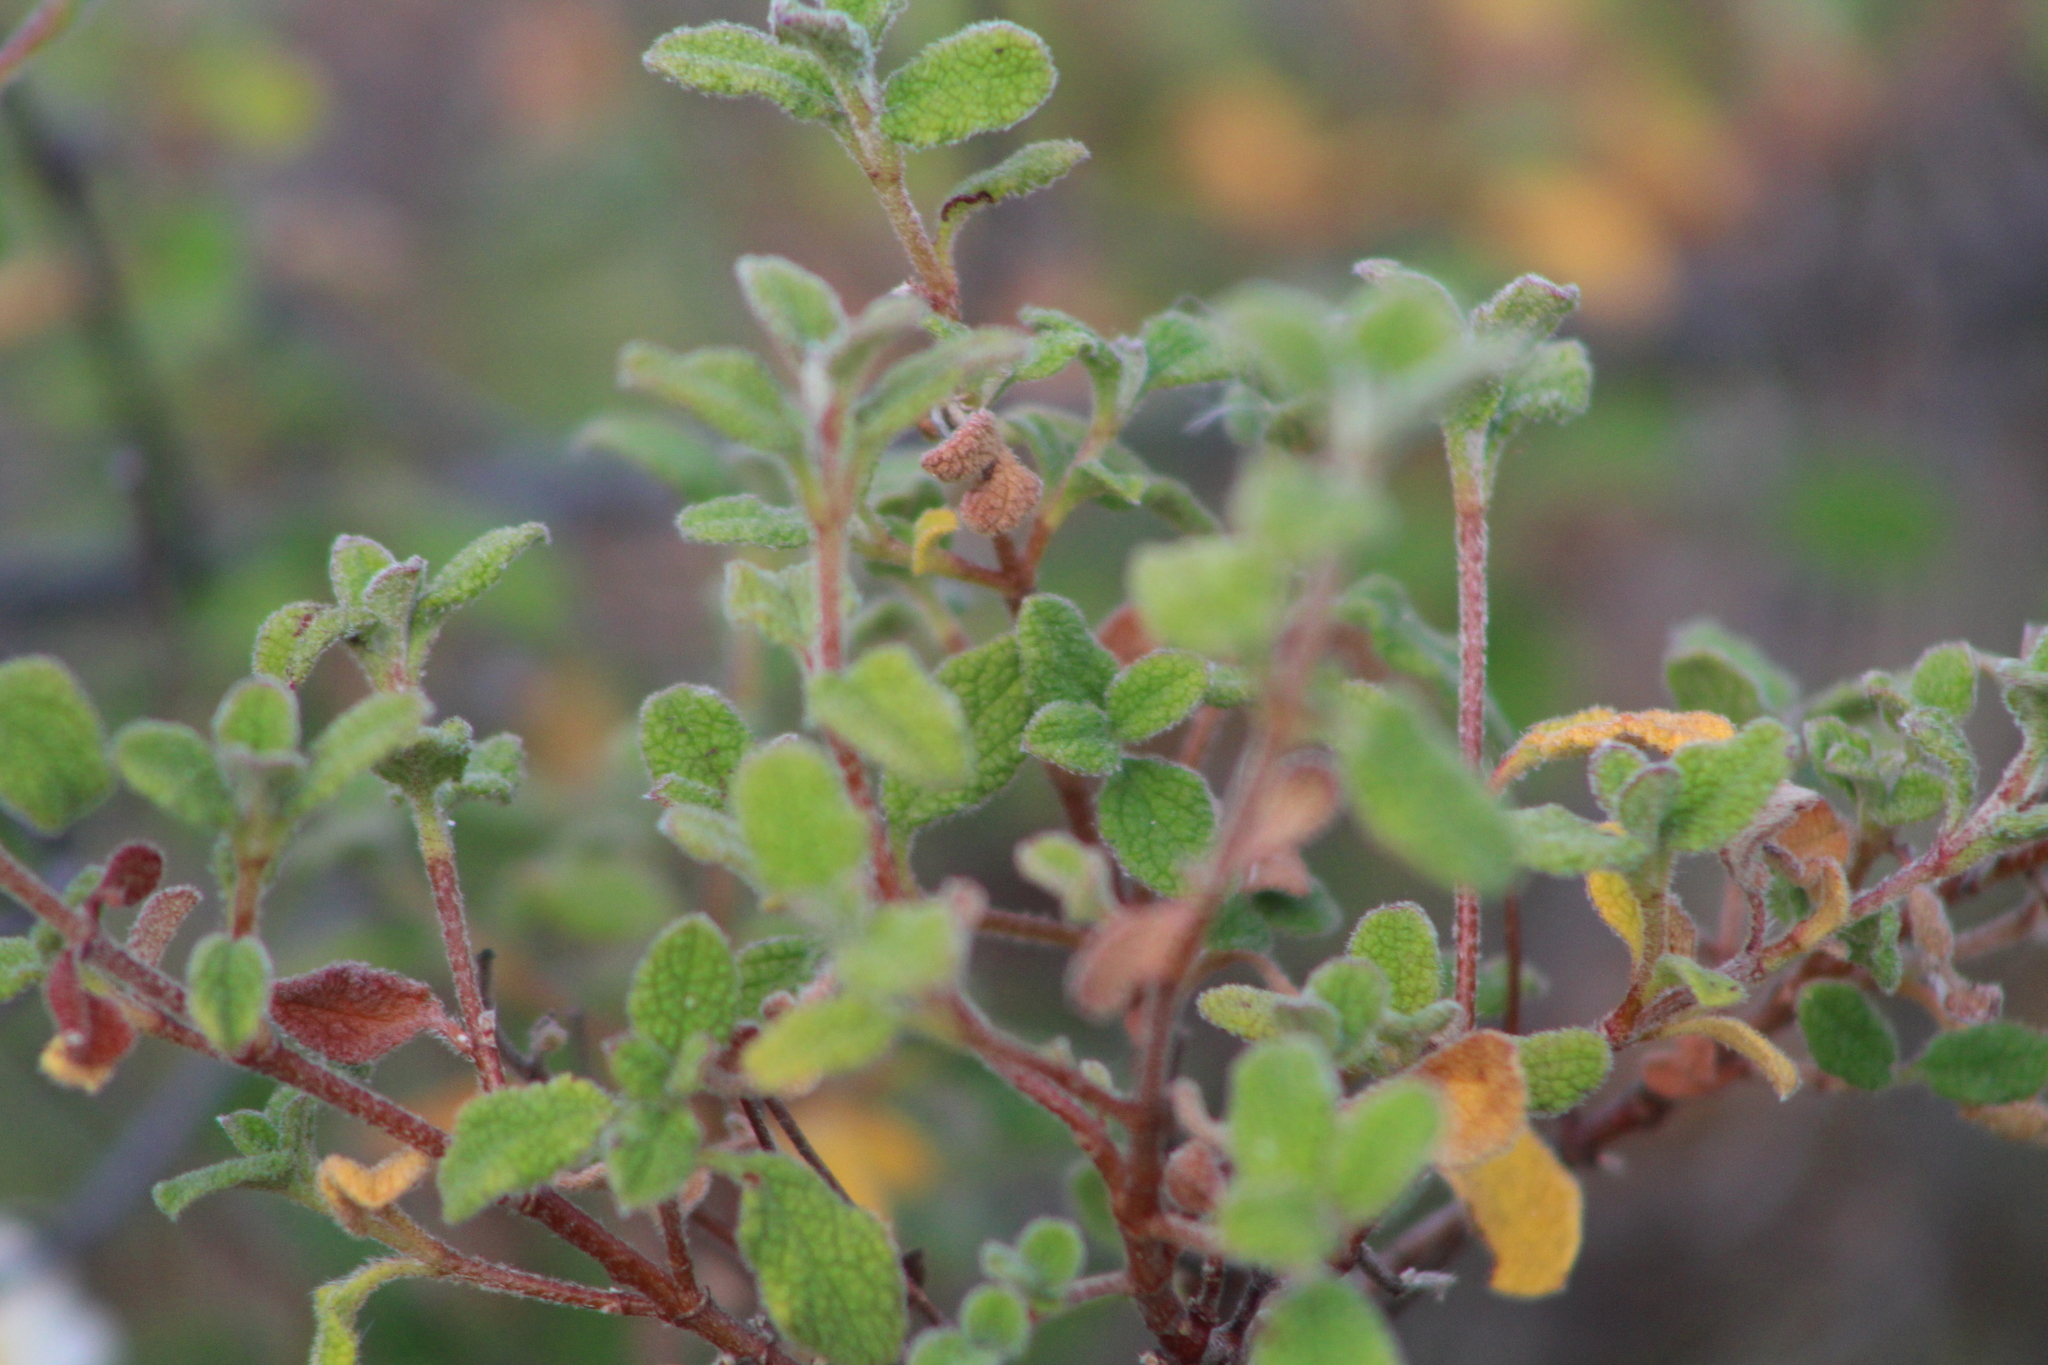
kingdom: Plantae
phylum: Tracheophyta
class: Magnoliopsida
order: Malvales
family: Cistaceae
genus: Cistus
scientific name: Cistus salviifolius
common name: Salvia cistus
